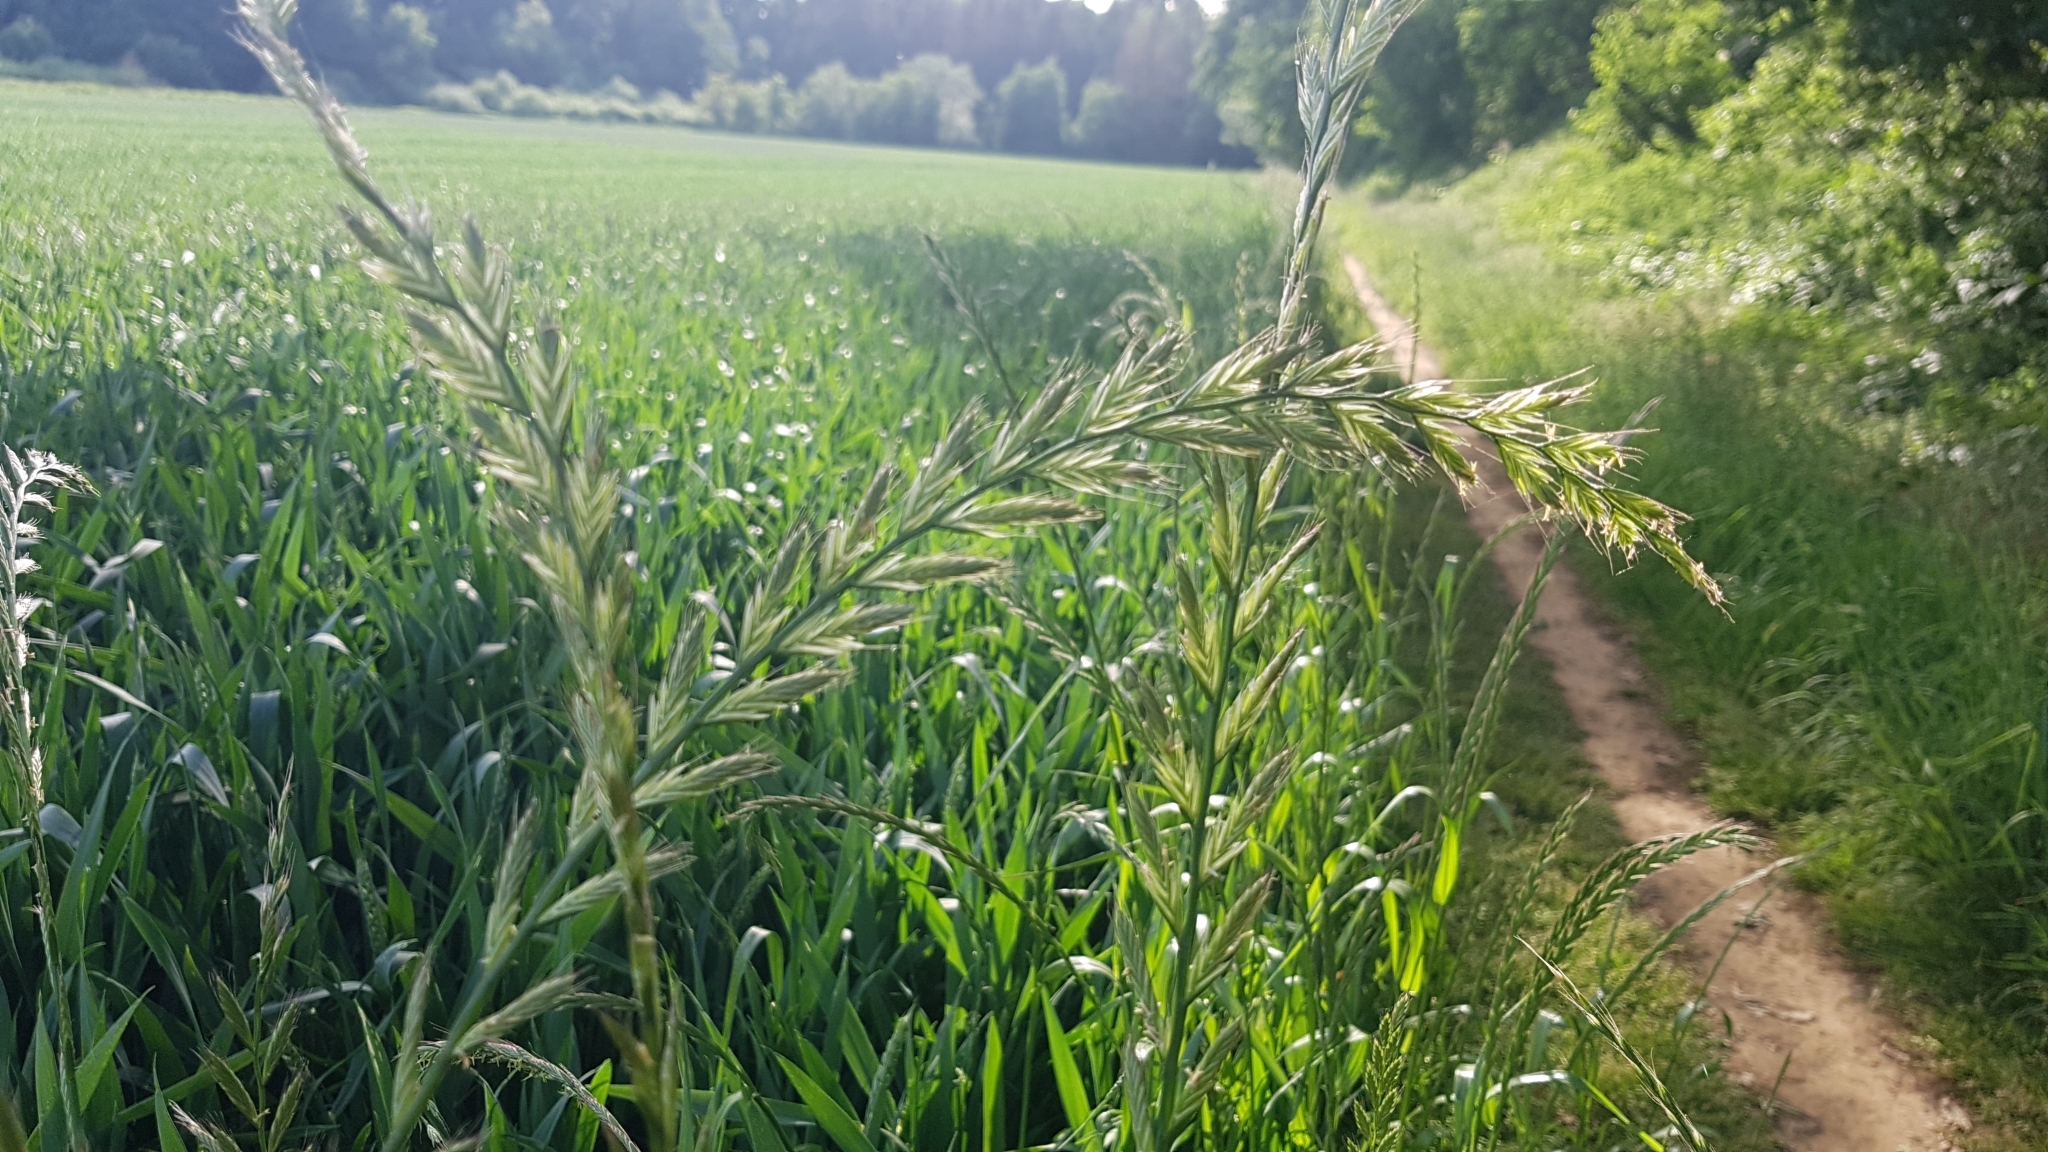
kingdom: Plantae
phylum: Tracheophyta
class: Liliopsida
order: Poales
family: Poaceae
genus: Lolium
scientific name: Lolium multiflorum
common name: Annual ryegrass
